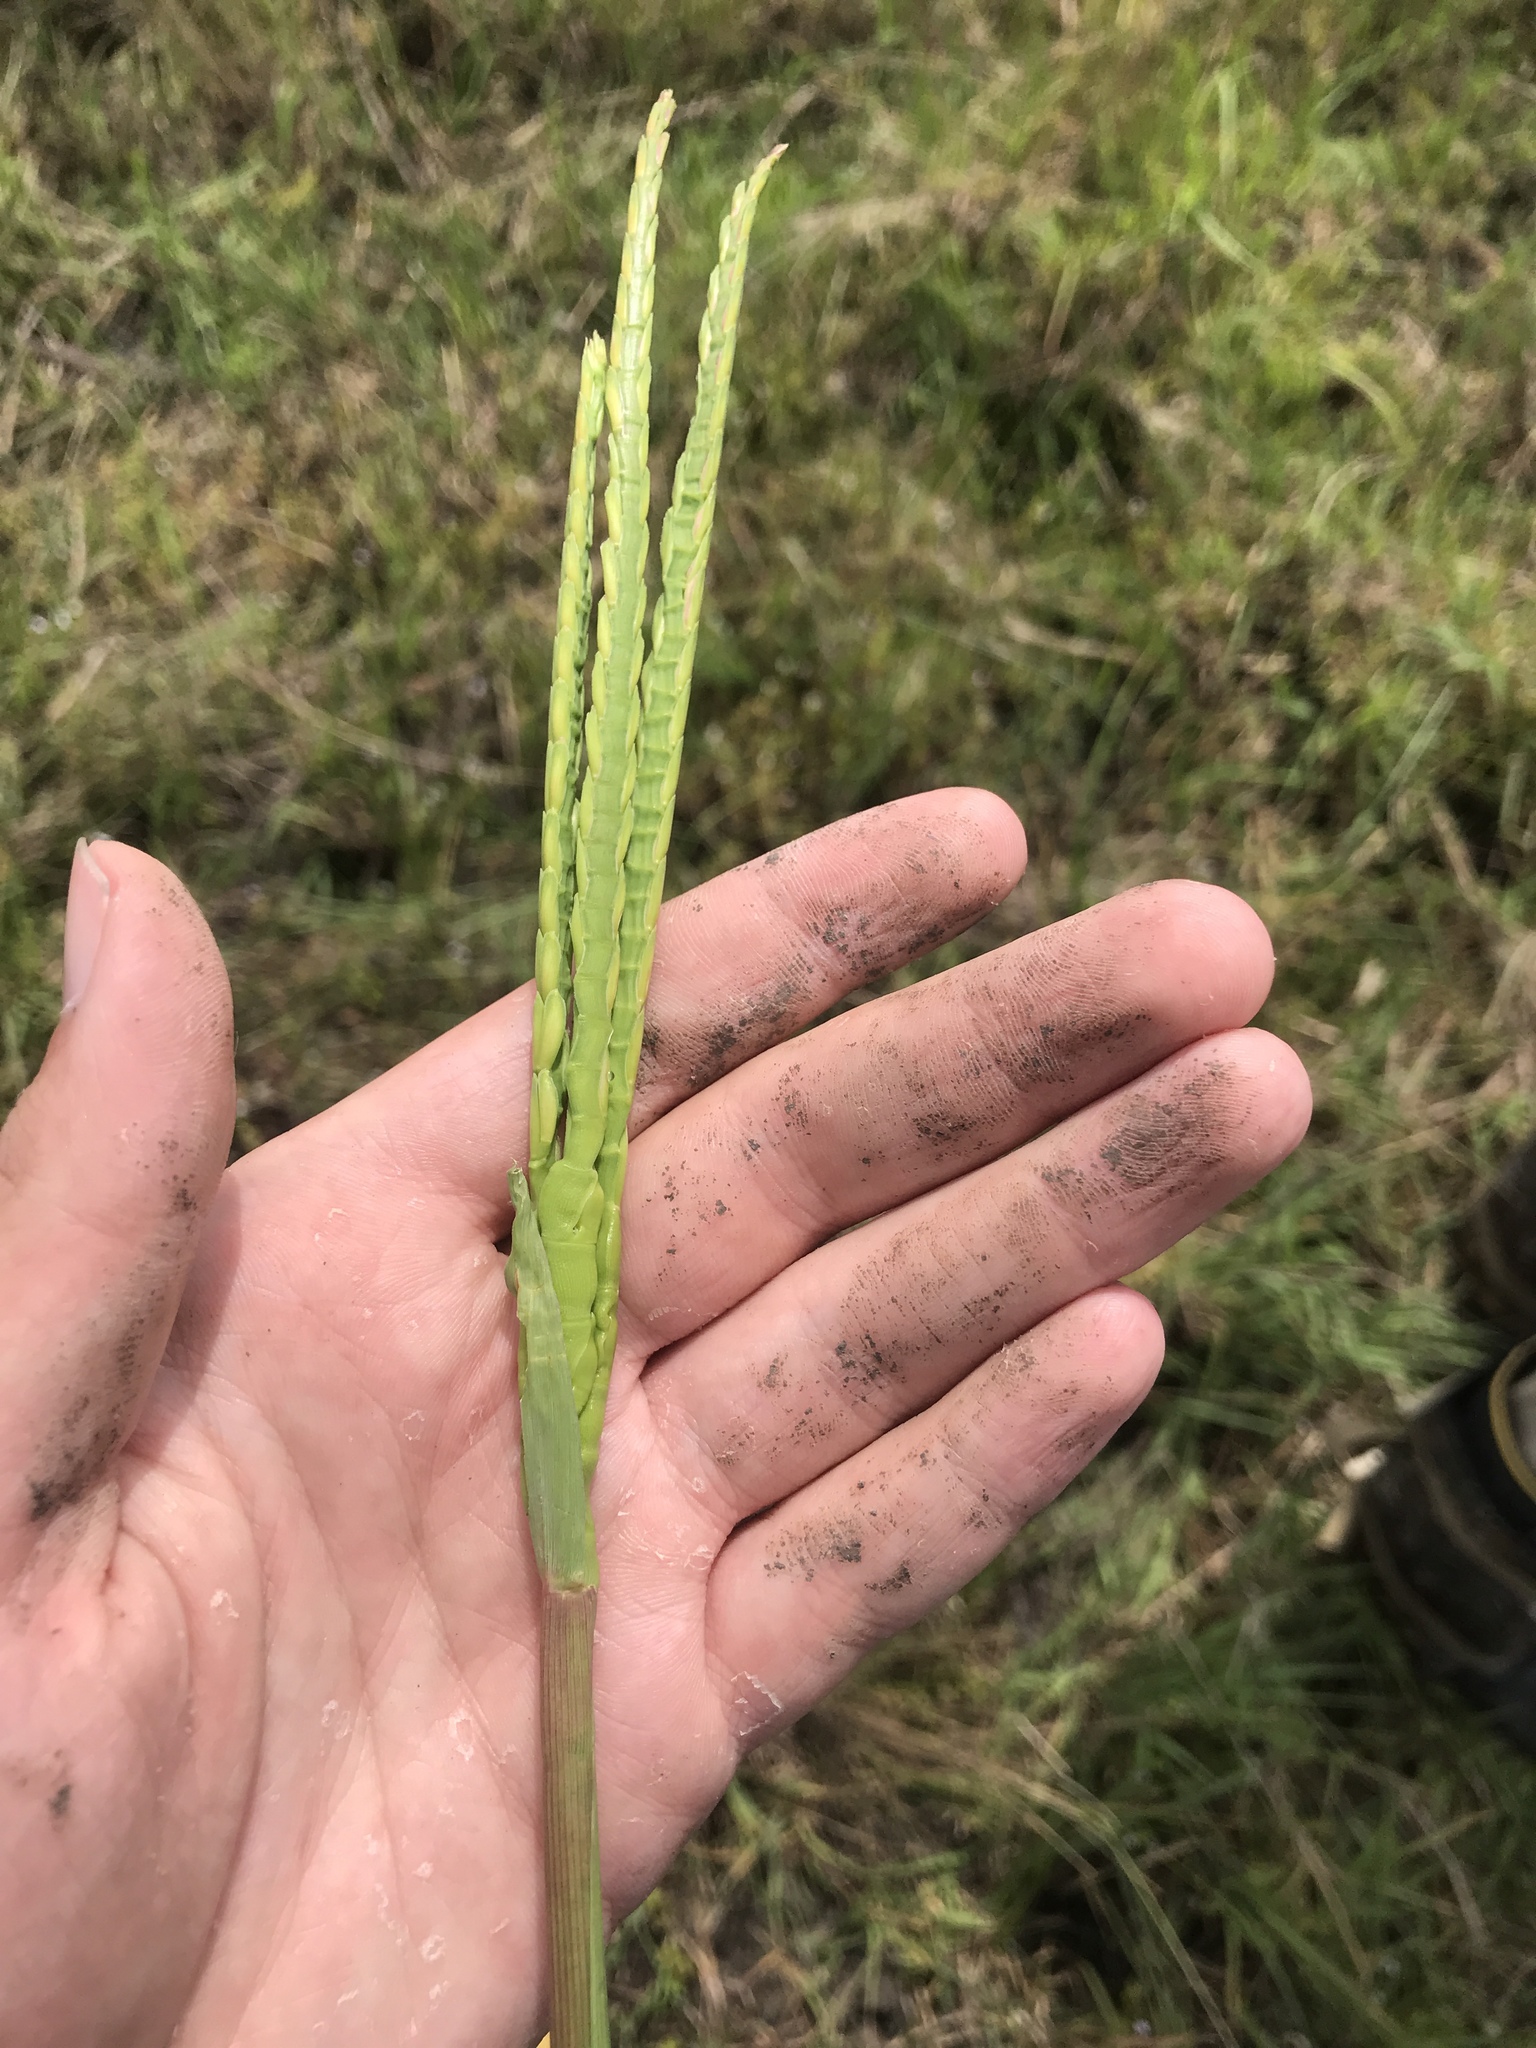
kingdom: Plantae
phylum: Tracheophyta
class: Liliopsida
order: Poales
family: Poaceae
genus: Tripsacum
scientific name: Tripsacum dactyloides
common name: Buffalo-grass
